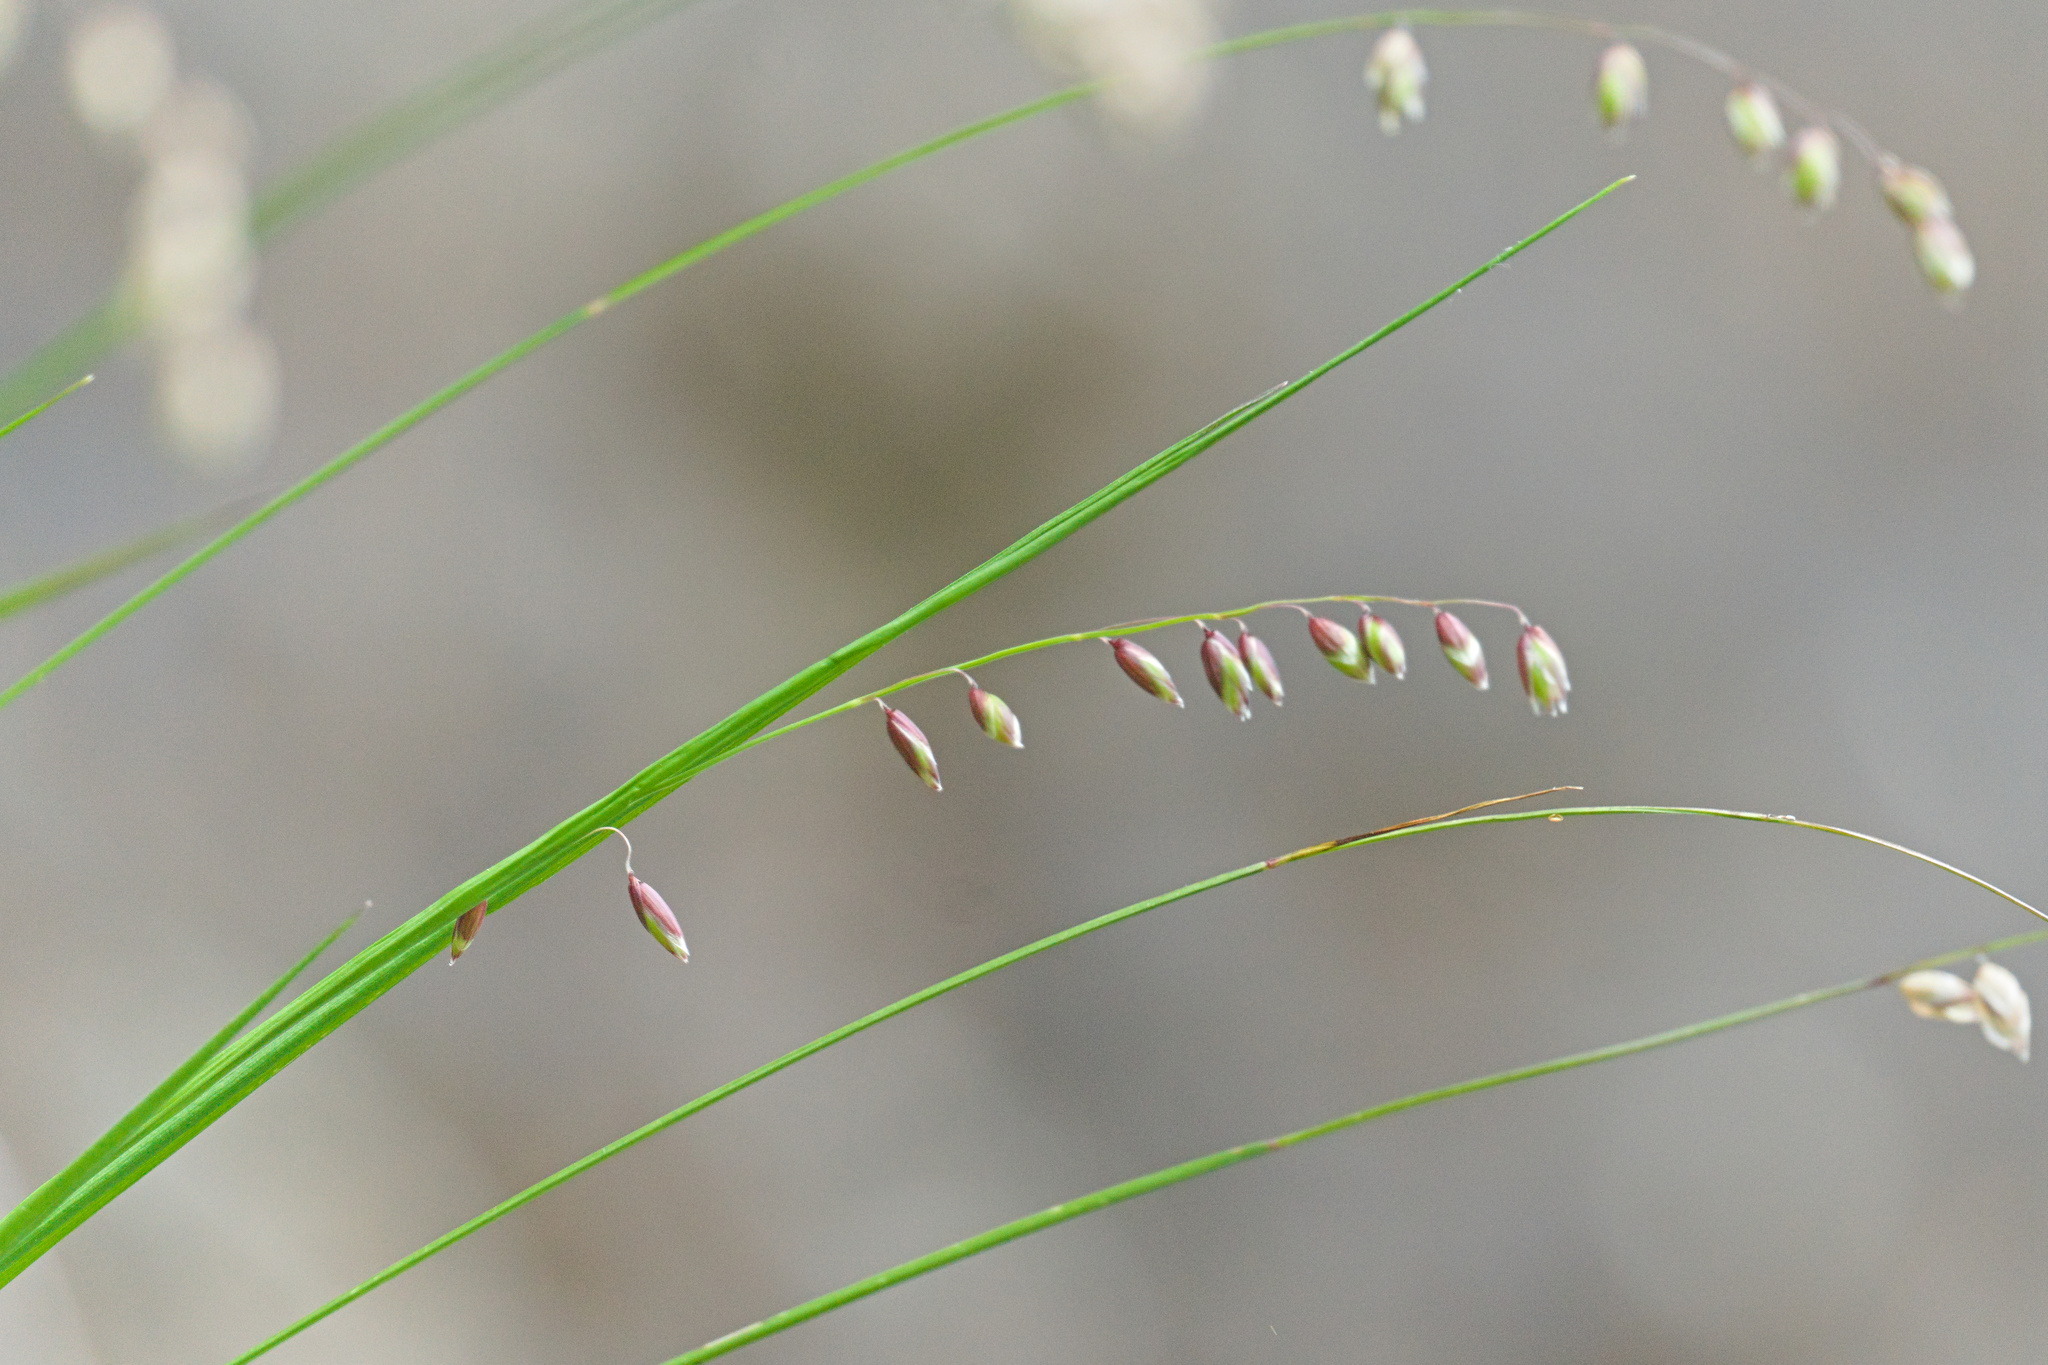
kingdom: Plantae
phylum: Tracheophyta
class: Liliopsida
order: Poales
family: Poaceae
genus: Melica
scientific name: Melica nutans
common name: Mountain melick
